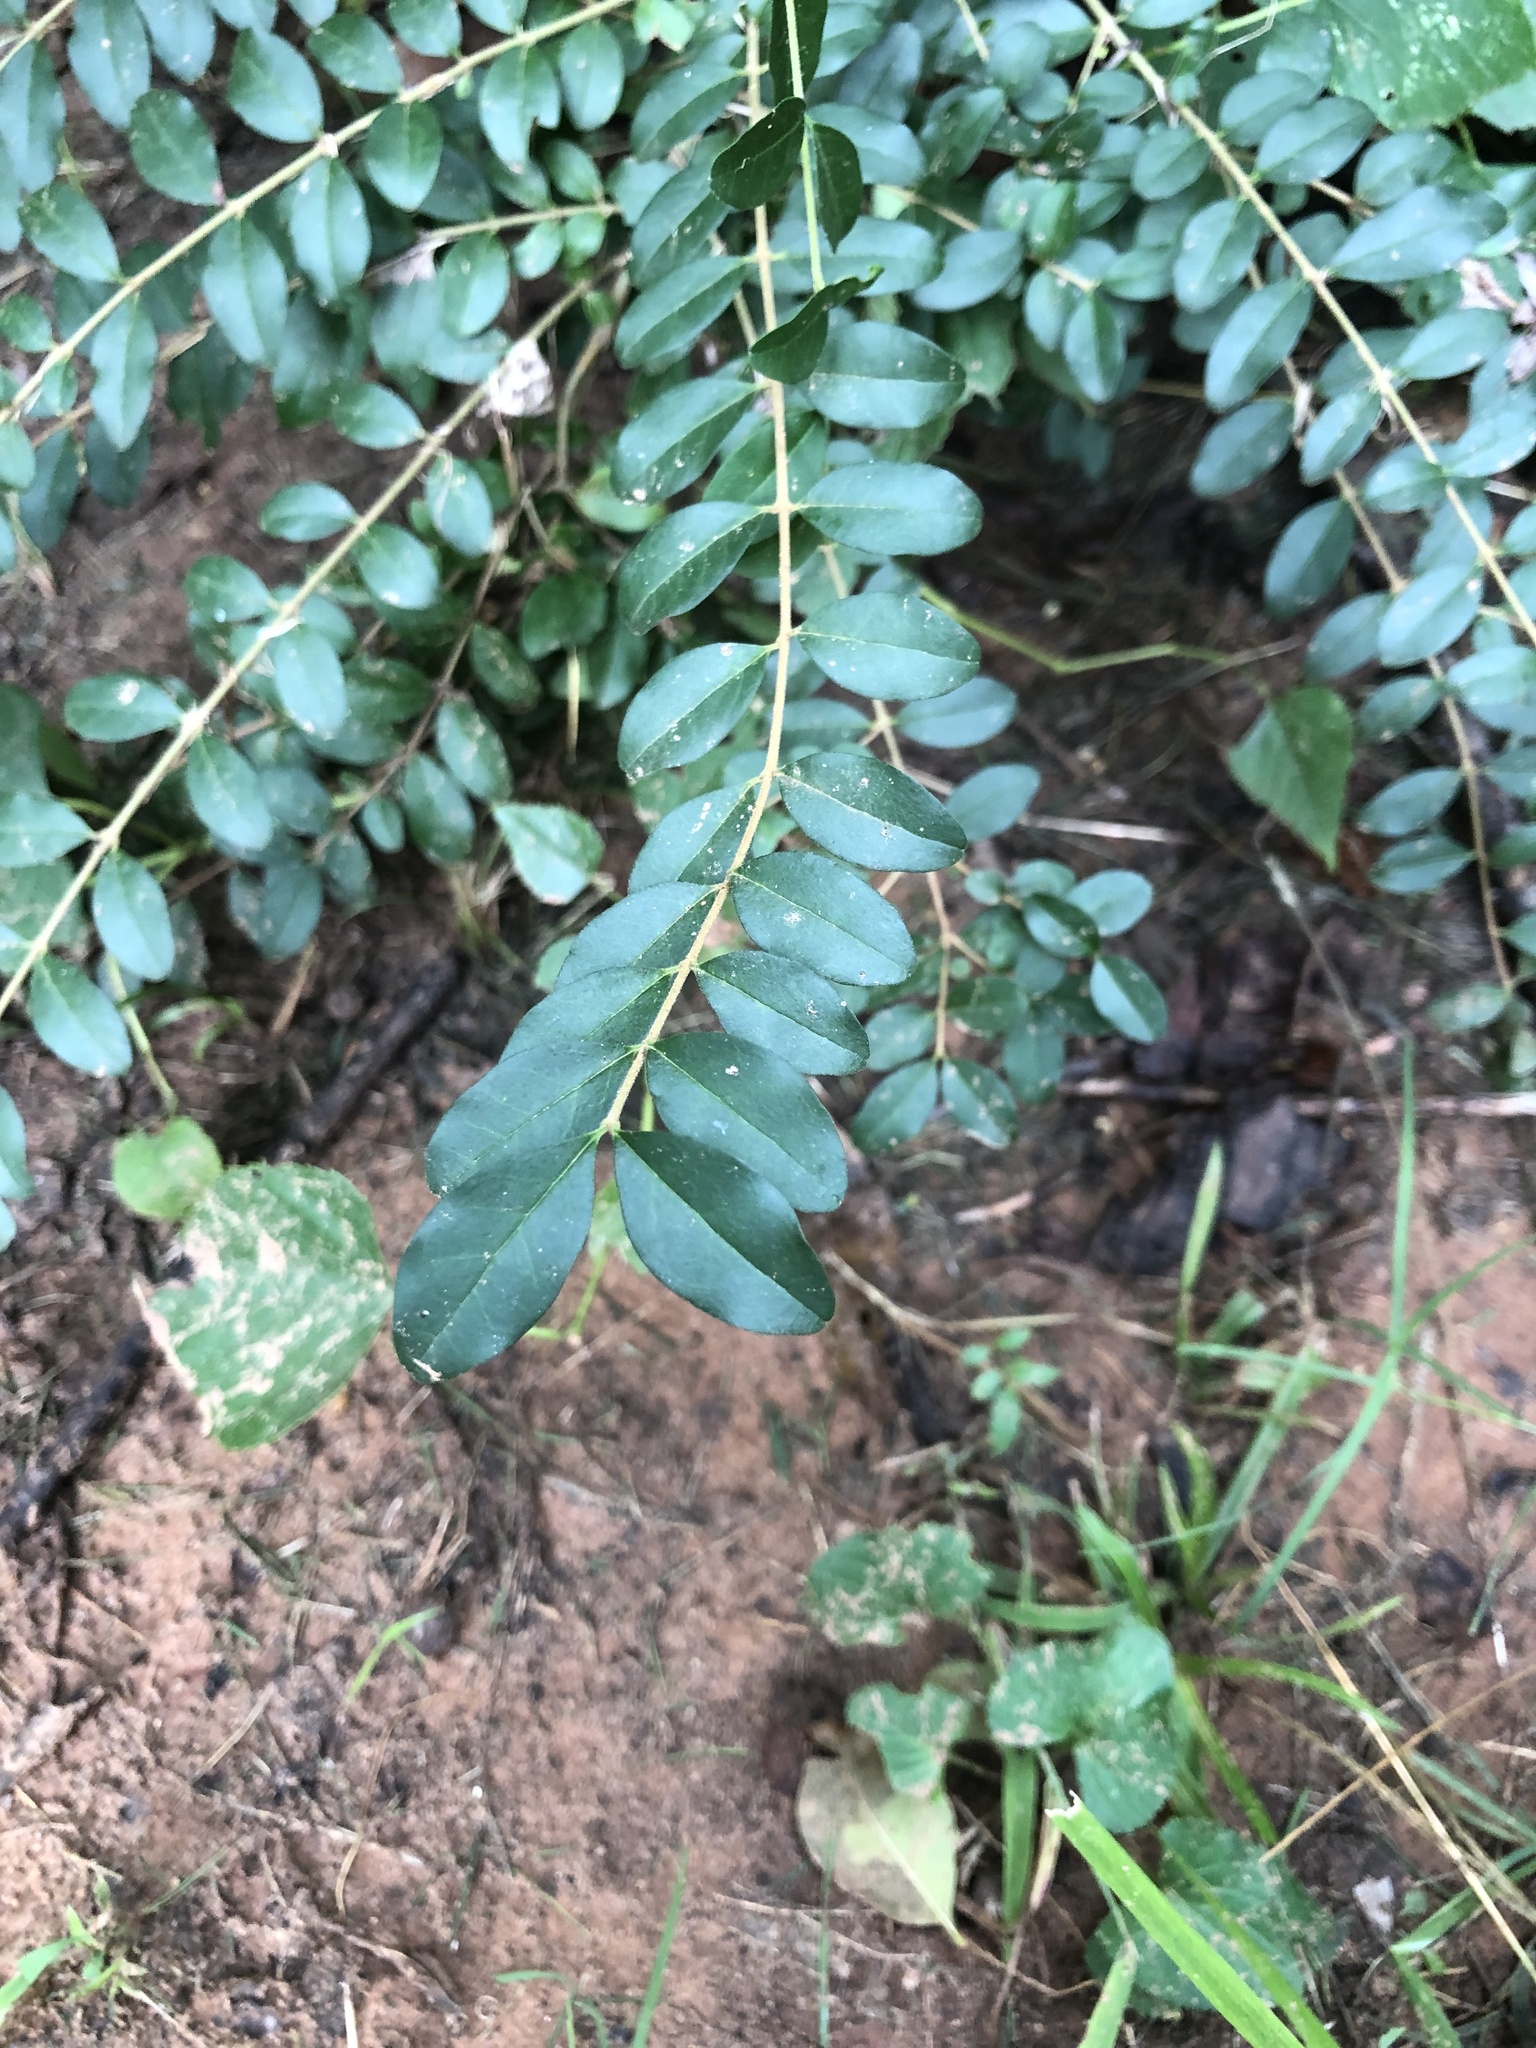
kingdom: Plantae
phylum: Tracheophyta
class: Magnoliopsida
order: Lamiales
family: Oleaceae
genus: Ligustrum
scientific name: Ligustrum sinense
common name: Chinese privet
